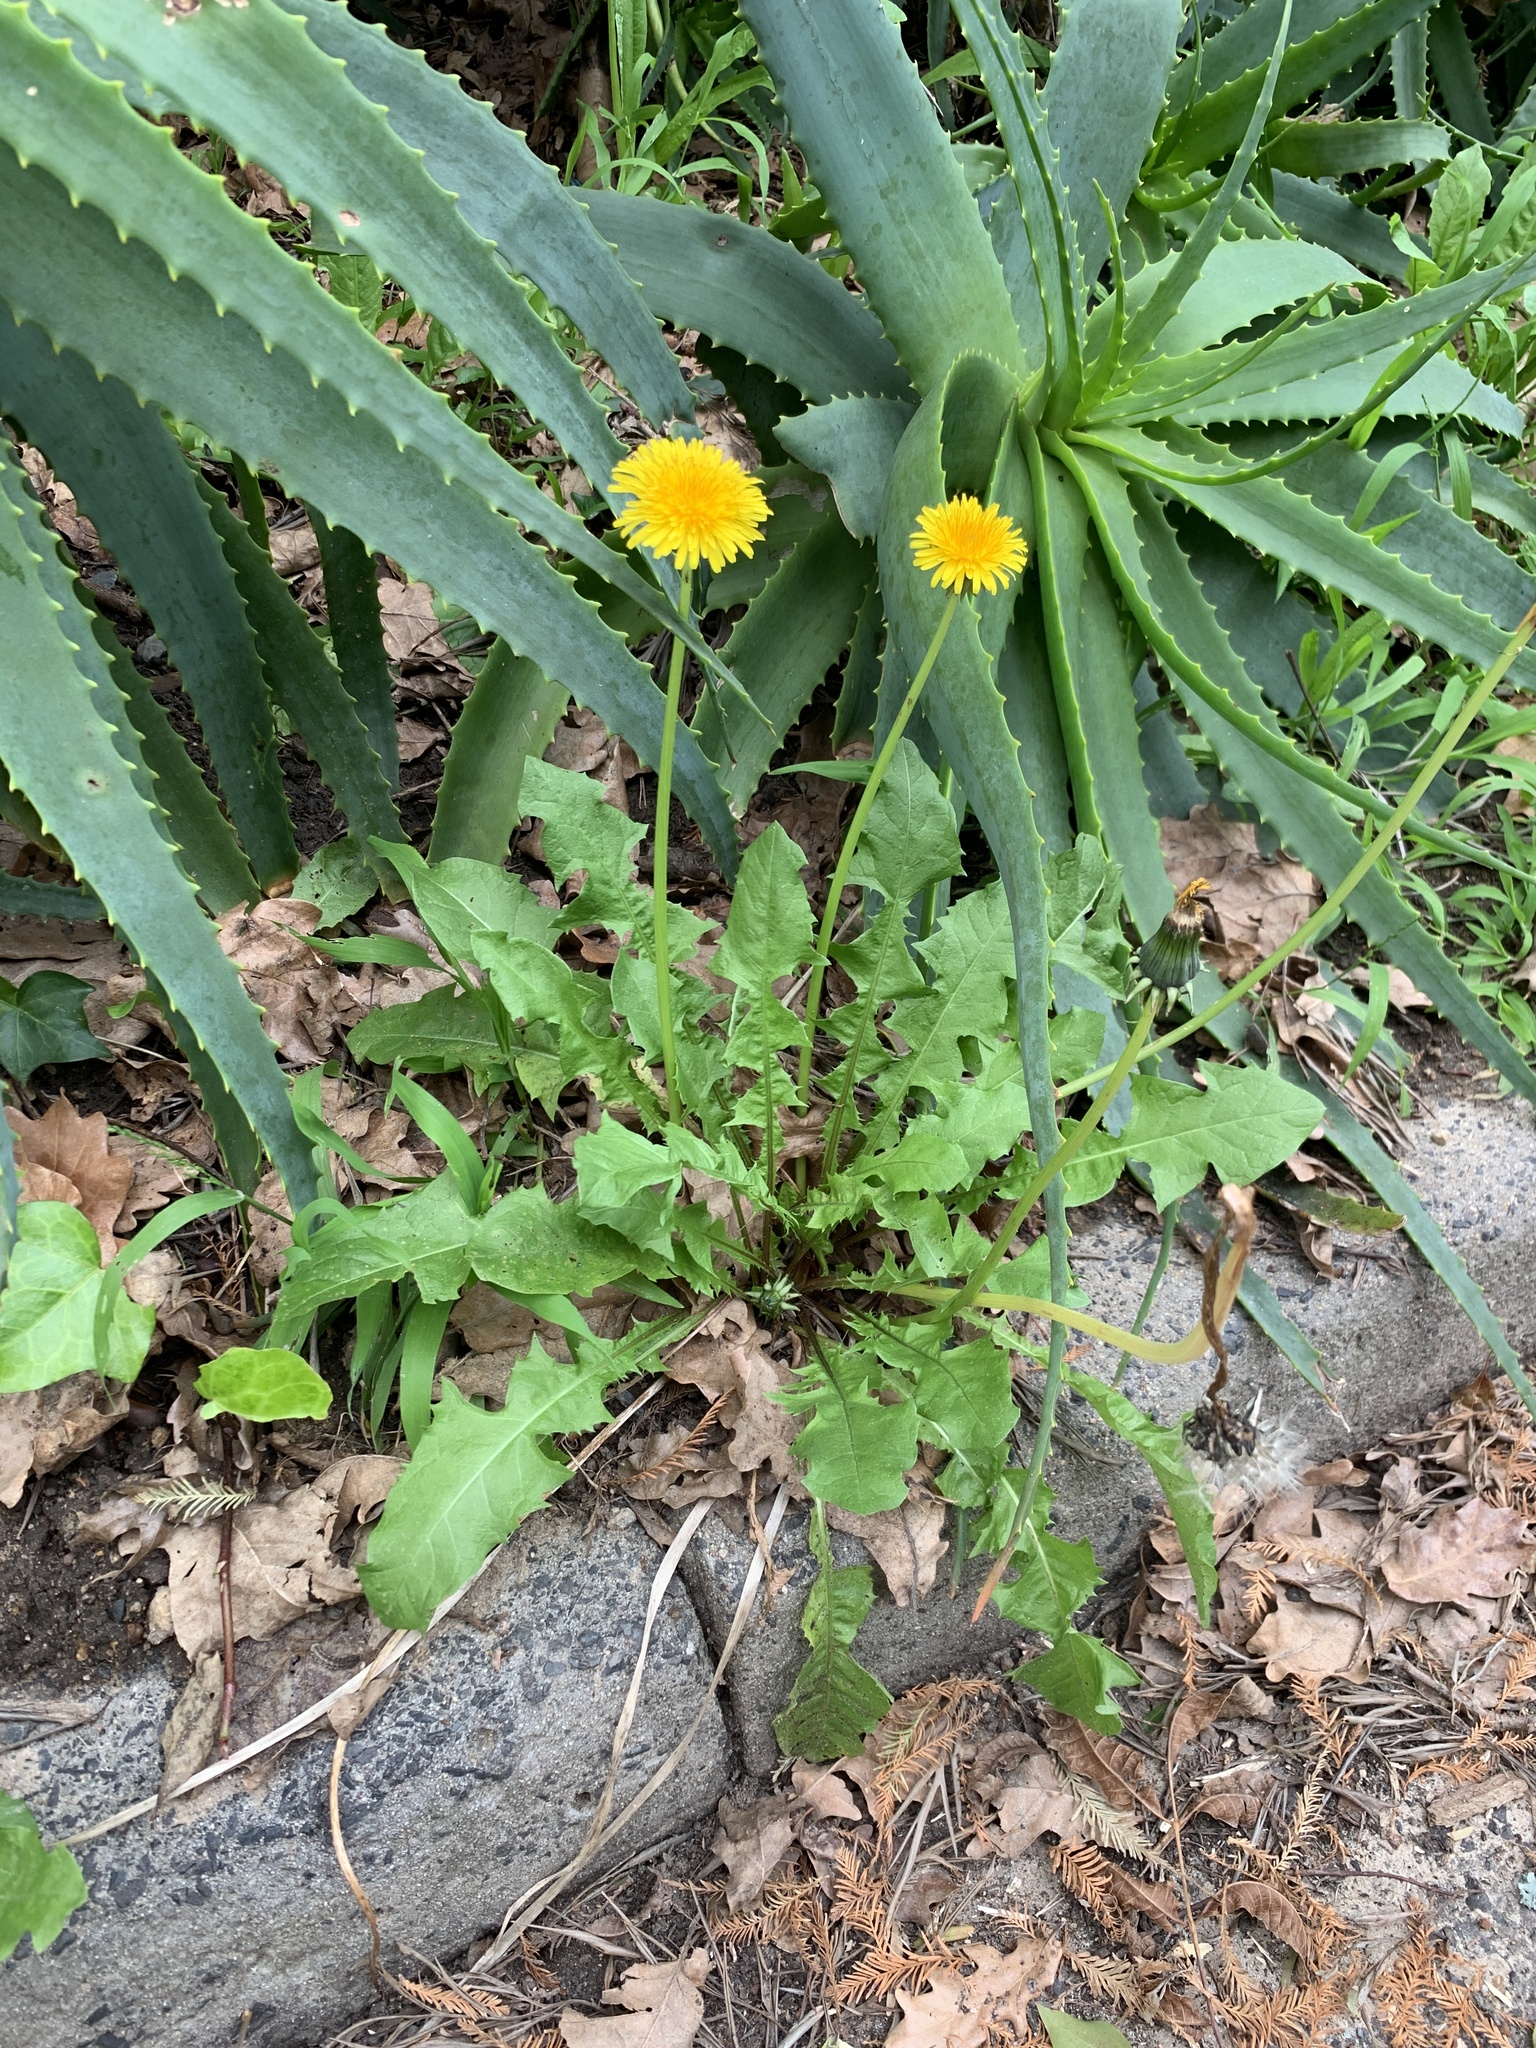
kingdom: Plantae
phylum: Tracheophyta
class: Magnoliopsida
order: Asterales
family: Asteraceae
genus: Taraxacum
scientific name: Taraxacum officinale
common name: Common dandelion
